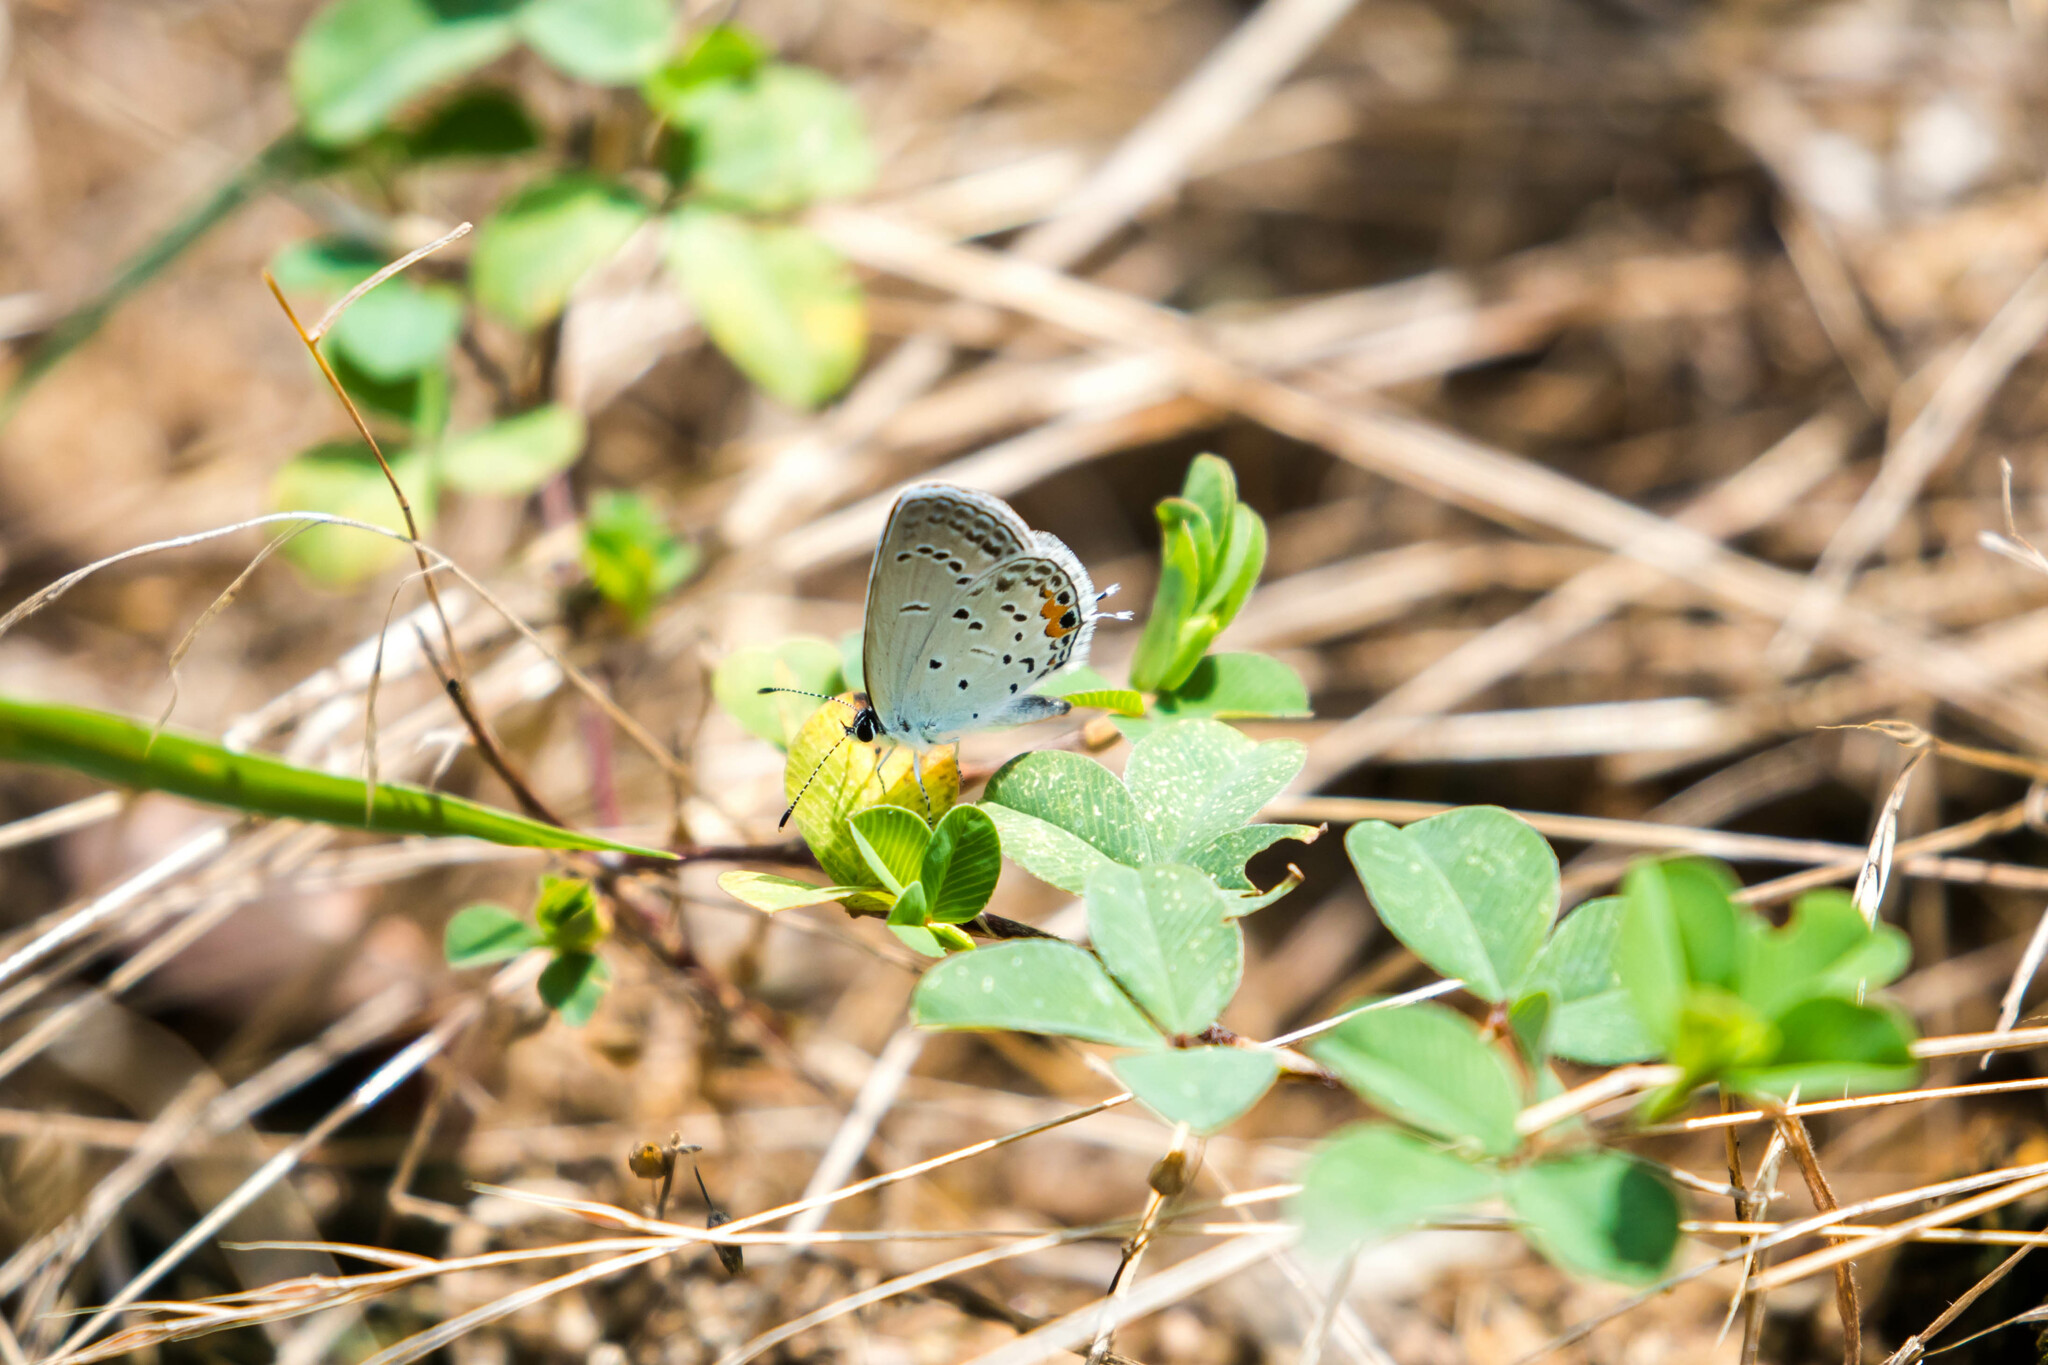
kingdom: Animalia
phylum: Arthropoda
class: Insecta
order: Lepidoptera
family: Lycaenidae
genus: Elkalyce
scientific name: Elkalyce comyntas
